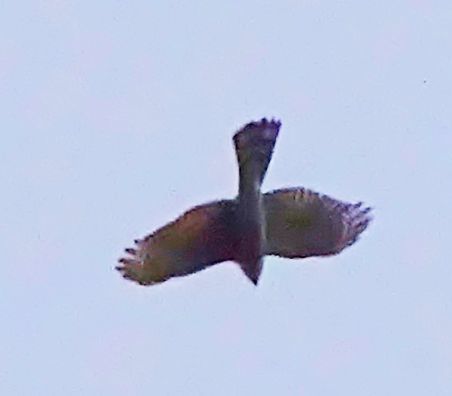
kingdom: Animalia
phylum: Chordata
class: Aves
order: Accipitriformes
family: Accipitridae
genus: Accipiter
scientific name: Accipiter striatus
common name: Sharp-shinned hawk
